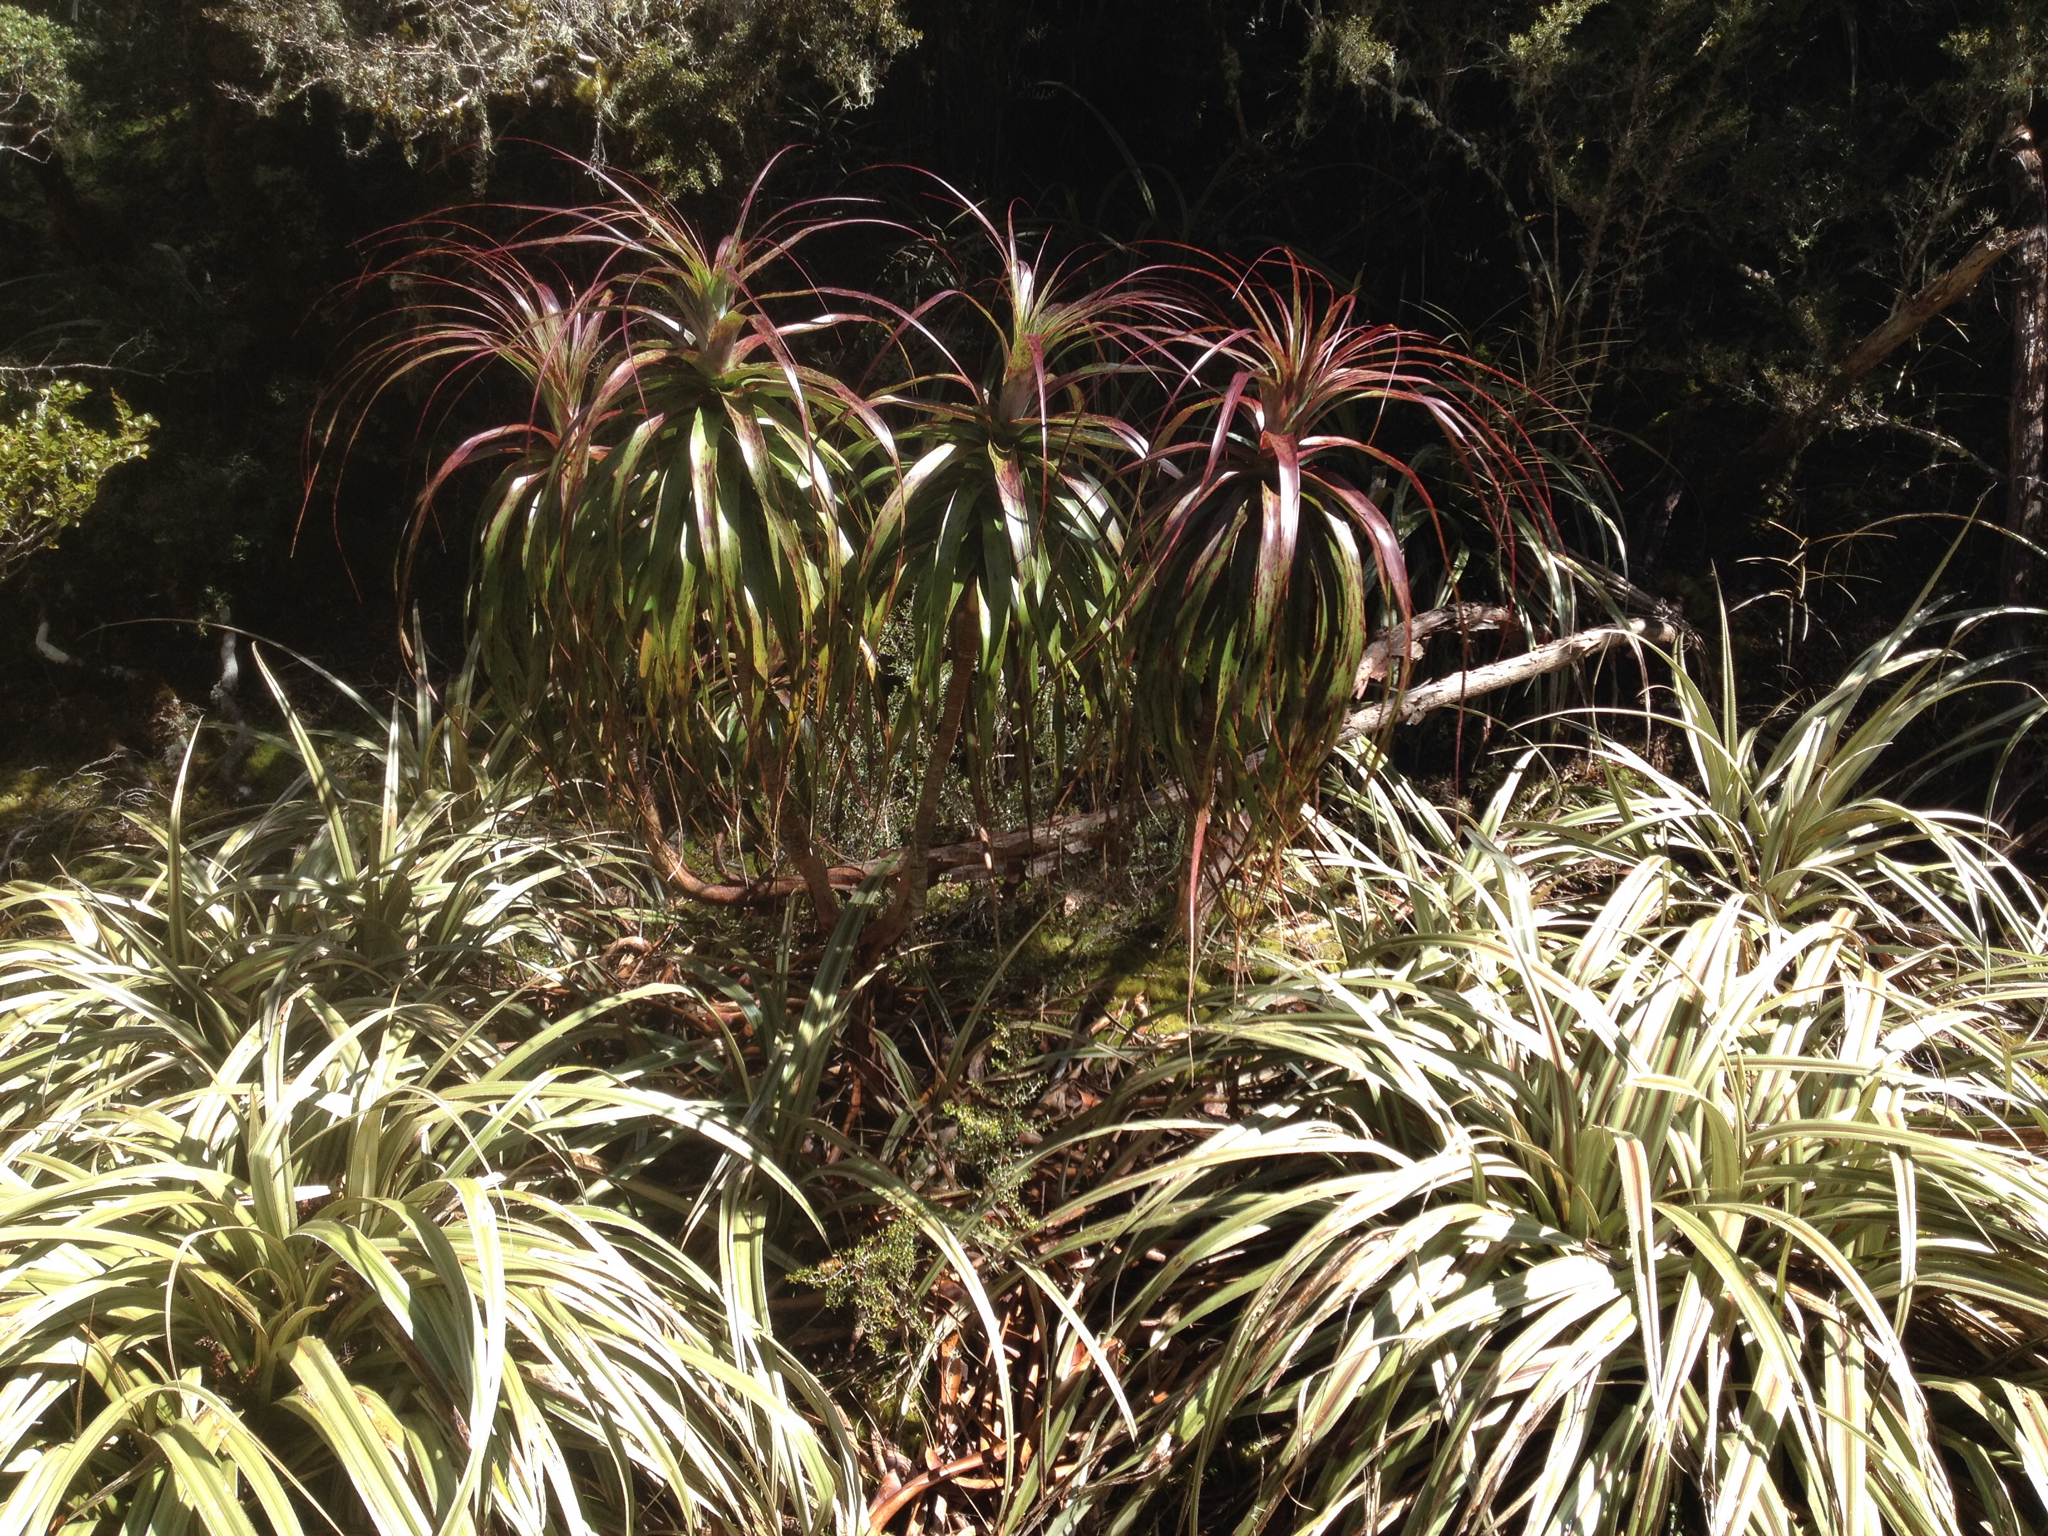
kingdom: Plantae
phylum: Tracheophyta
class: Liliopsida
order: Asparagales
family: Asteliaceae
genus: Astelia
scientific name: Astelia nervosa
